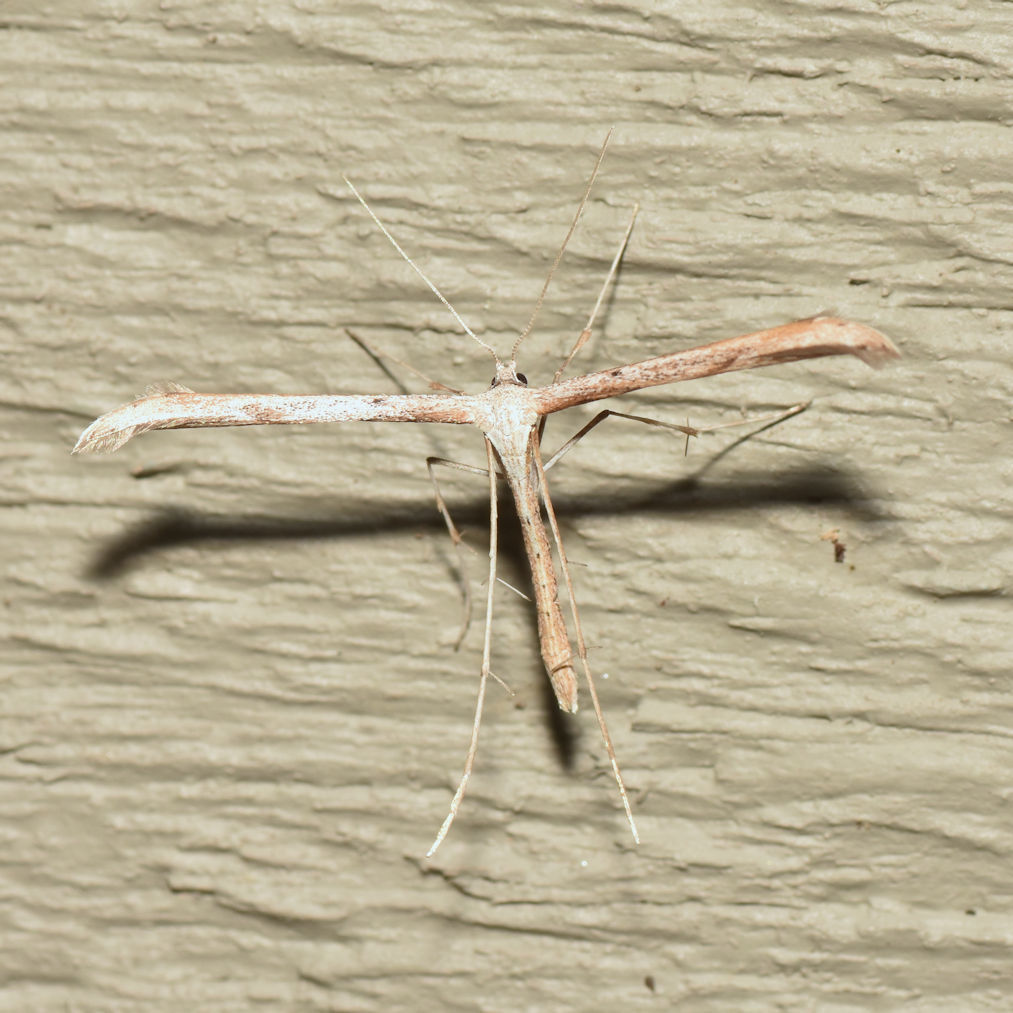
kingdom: Animalia
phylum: Arthropoda
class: Insecta
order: Lepidoptera
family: Pterophoridae
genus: Emmelina
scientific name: Emmelina monodactyla
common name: Common plume
